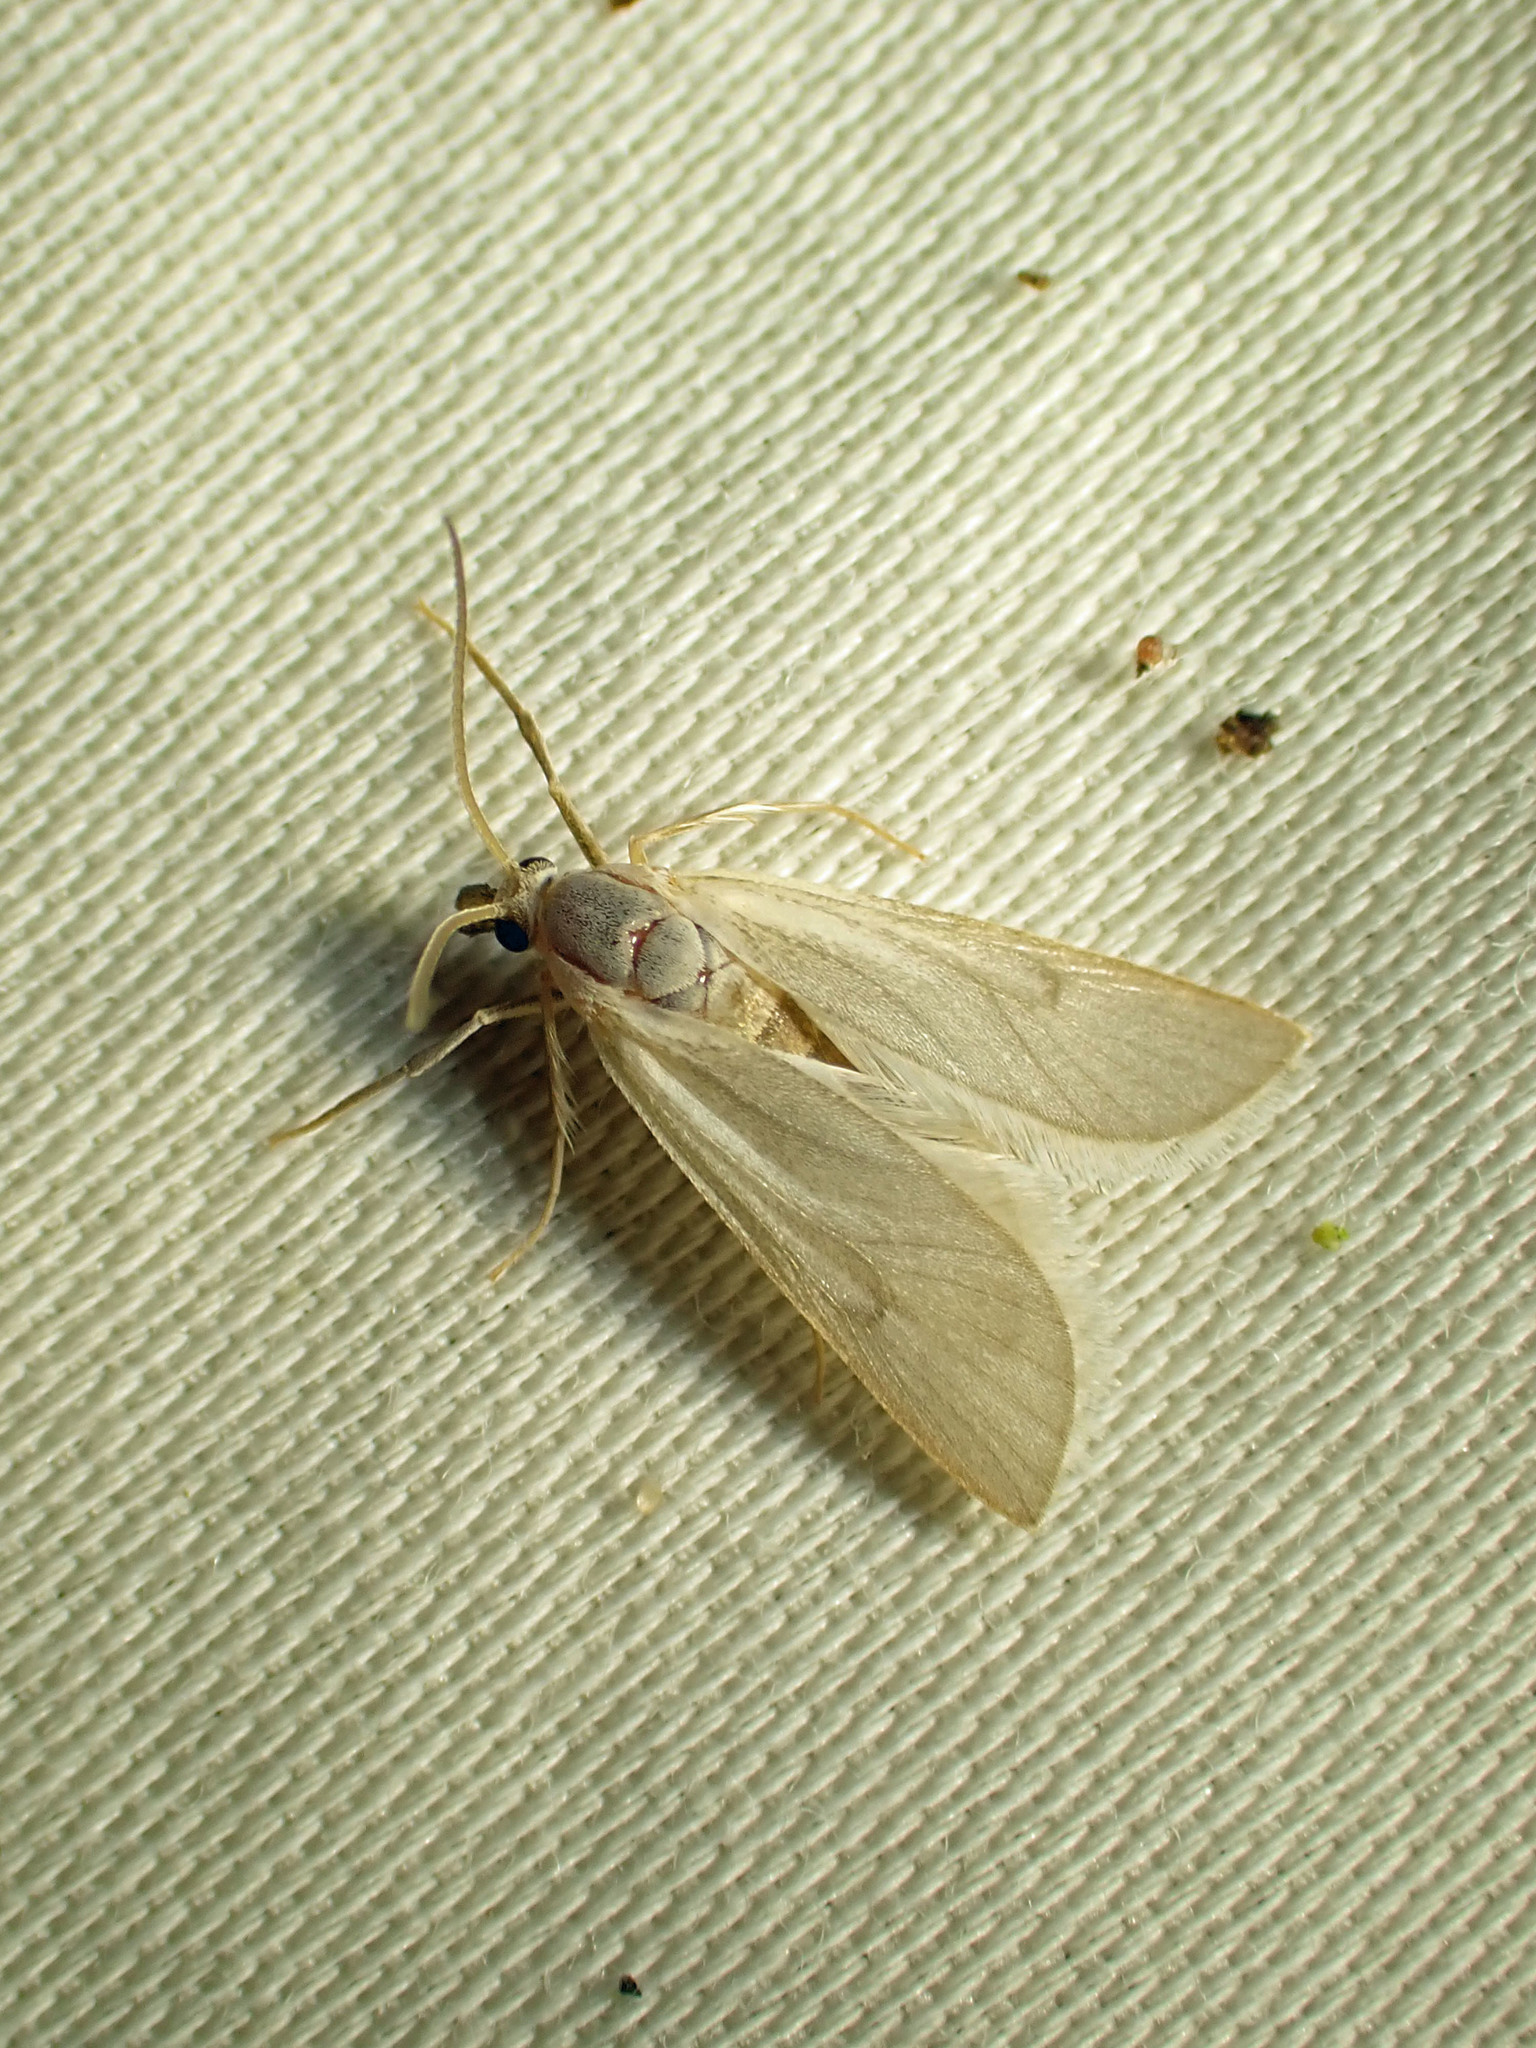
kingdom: Animalia
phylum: Arthropoda
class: Insecta
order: Lepidoptera
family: Crambidae
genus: Acentria
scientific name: Acentria ephemerella
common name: European water moth
